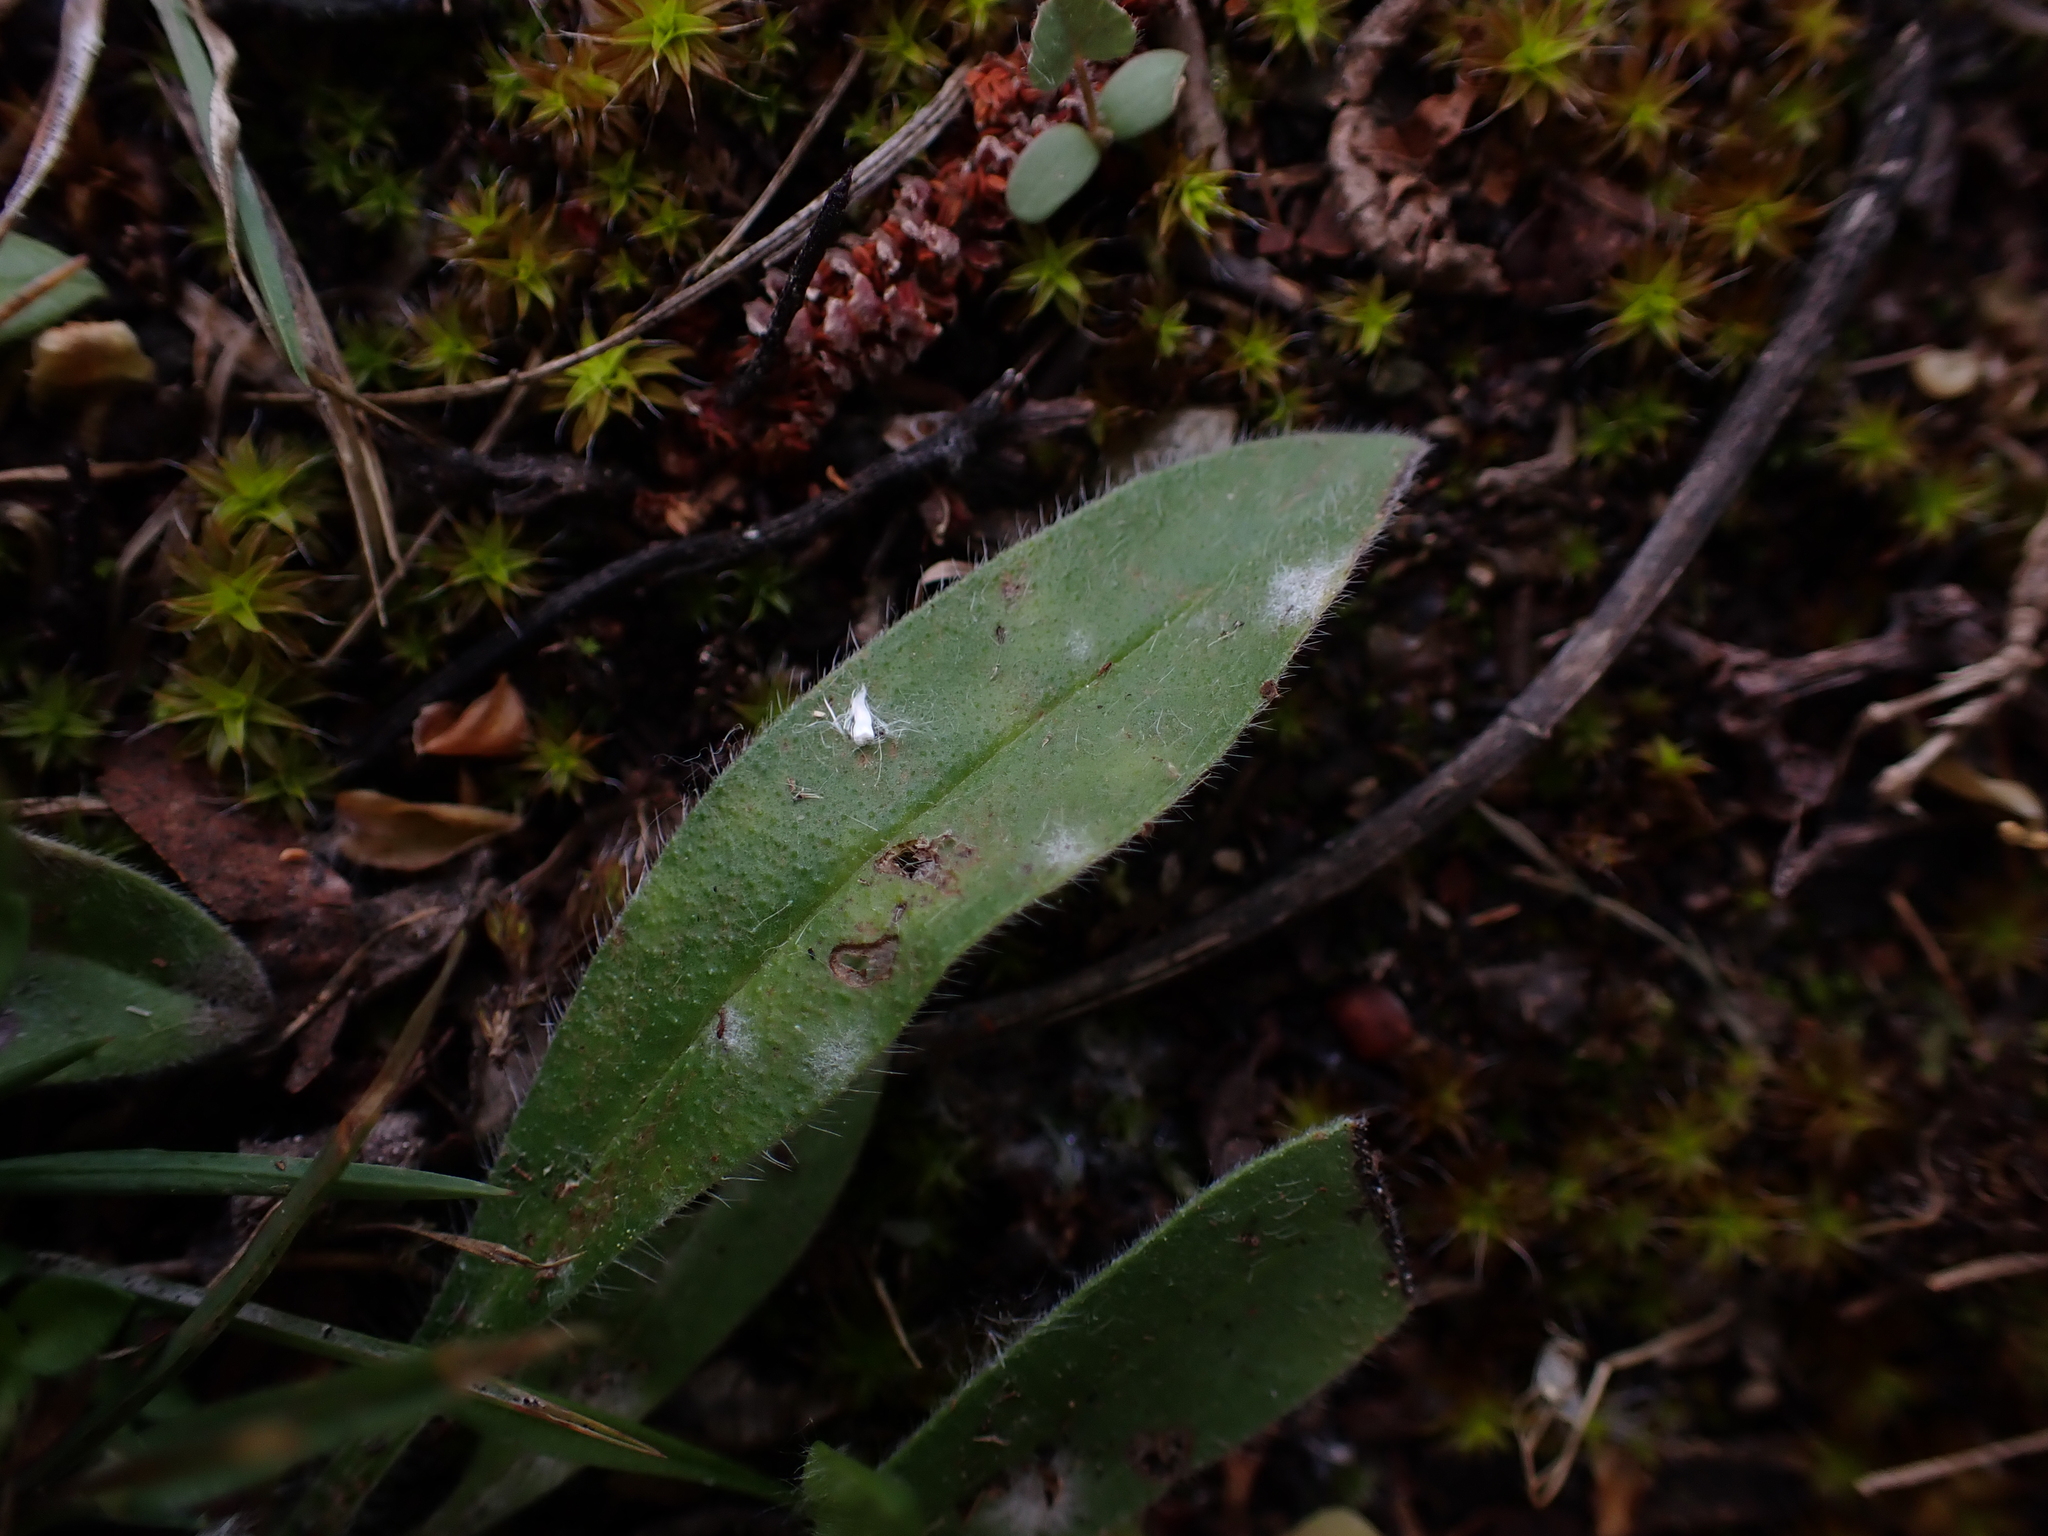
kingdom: Fungi
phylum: Ascomycota
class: Leotiomycetes
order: Helotiales
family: Erysiphaceae
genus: Golovinomyces
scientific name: Golovinomyces asperifolii
